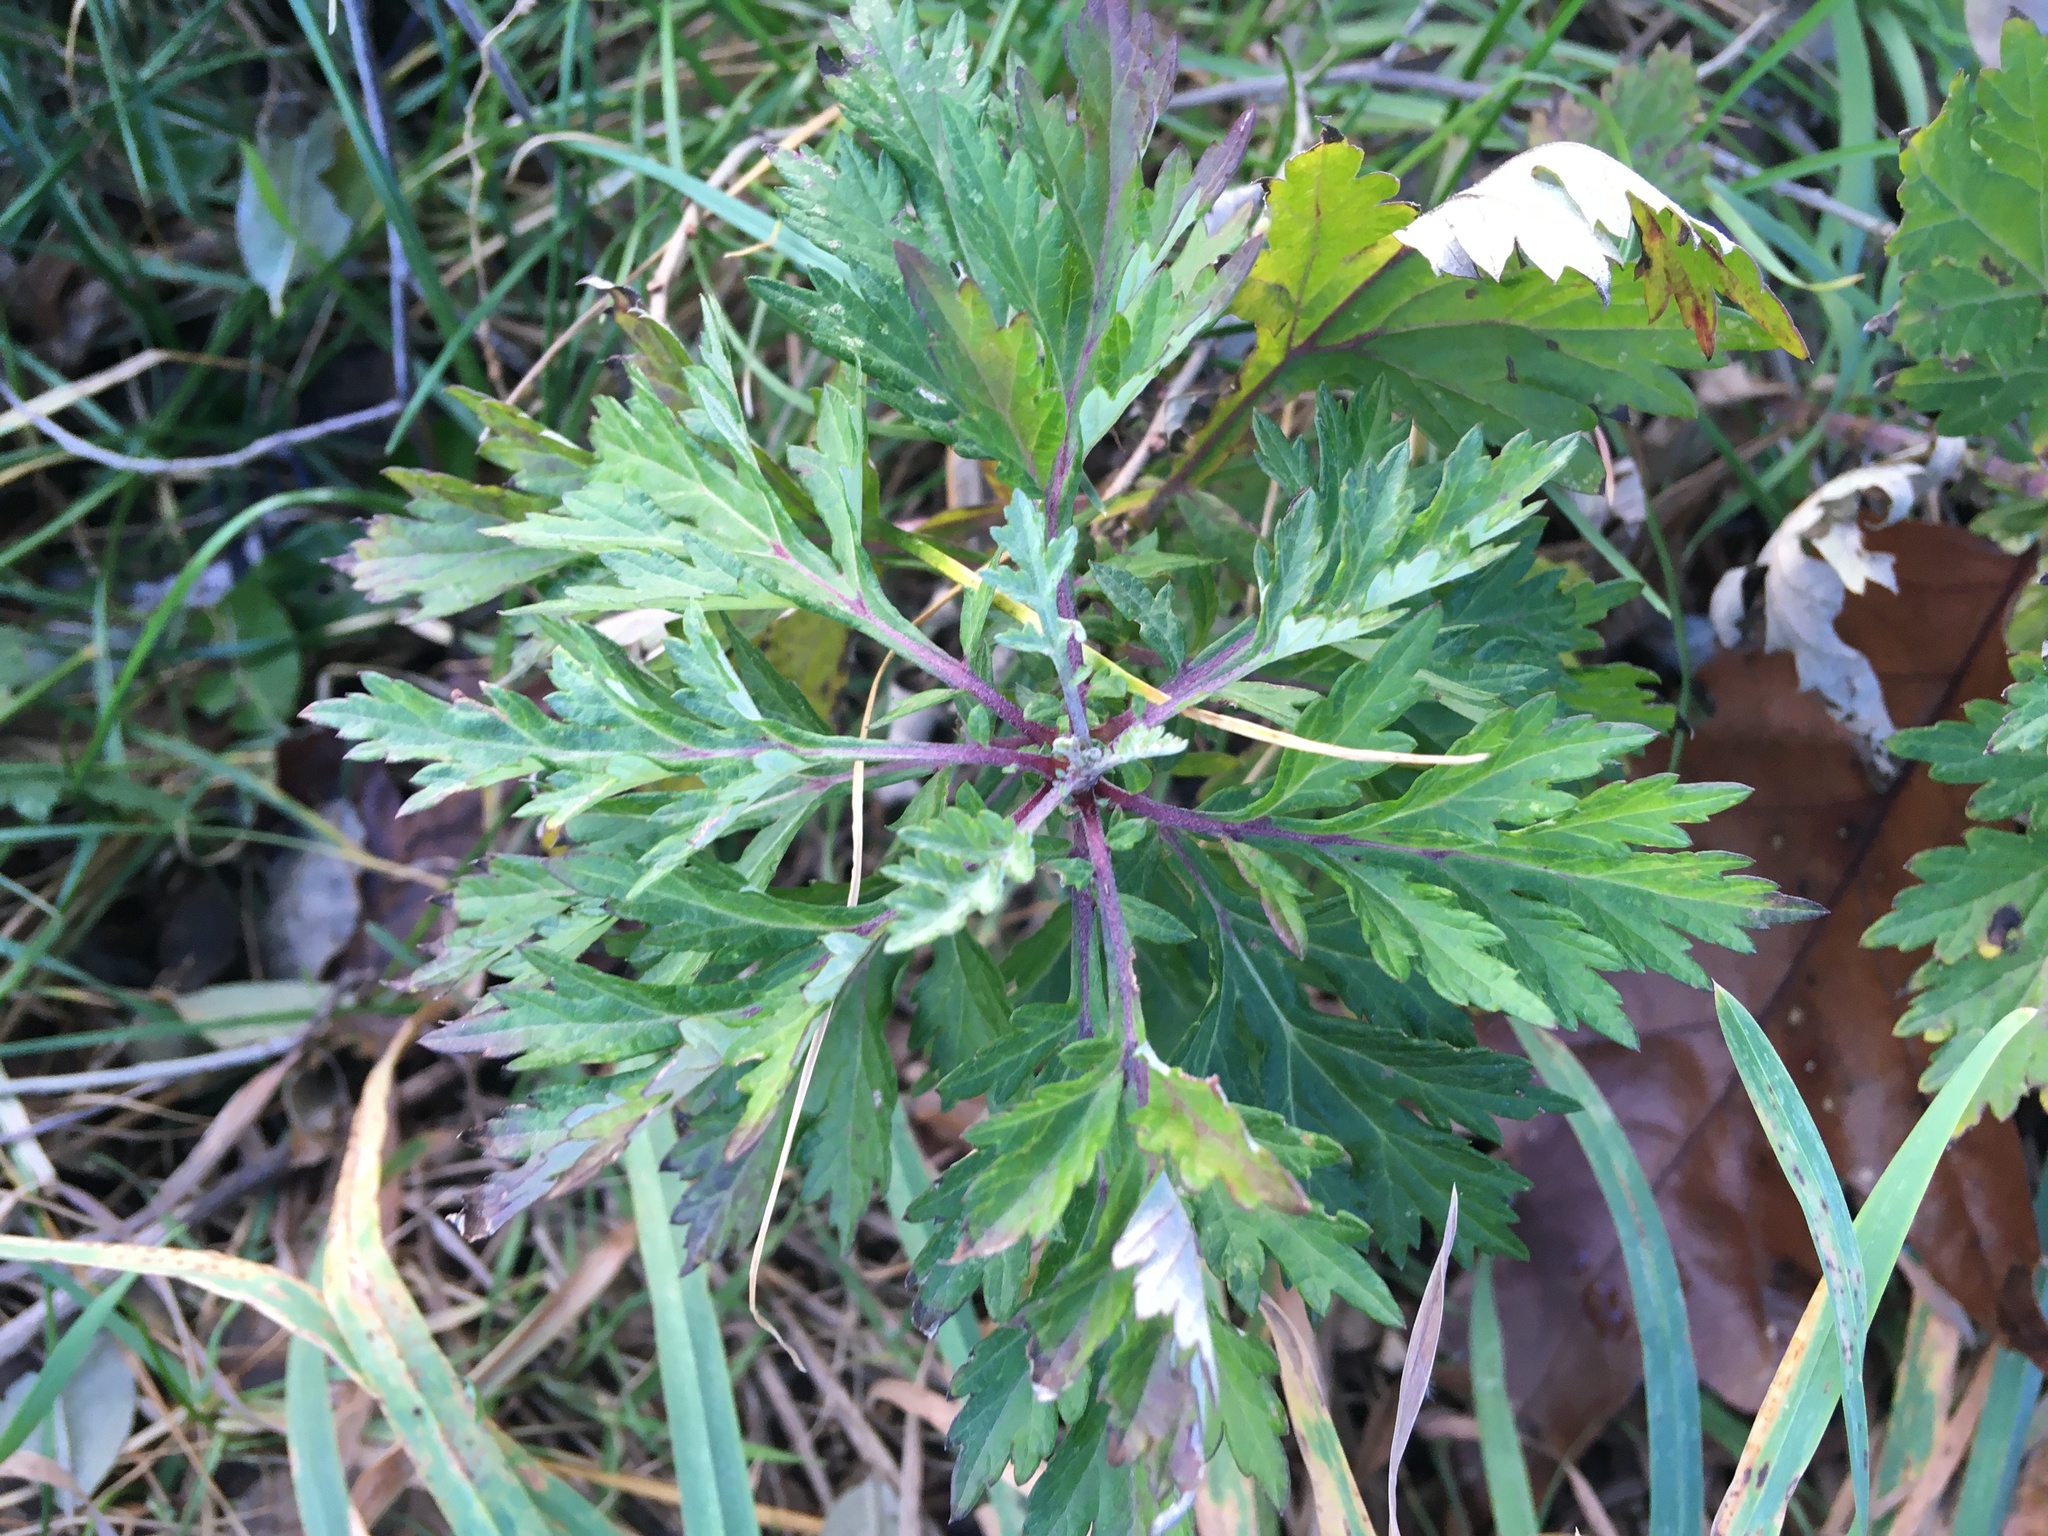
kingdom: Plantae
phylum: Tracheophyta
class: Magnoliopsida
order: Asterales
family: Asteraceae
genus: Artemisia
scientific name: Artemisia vulgaris
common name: Mugwort
